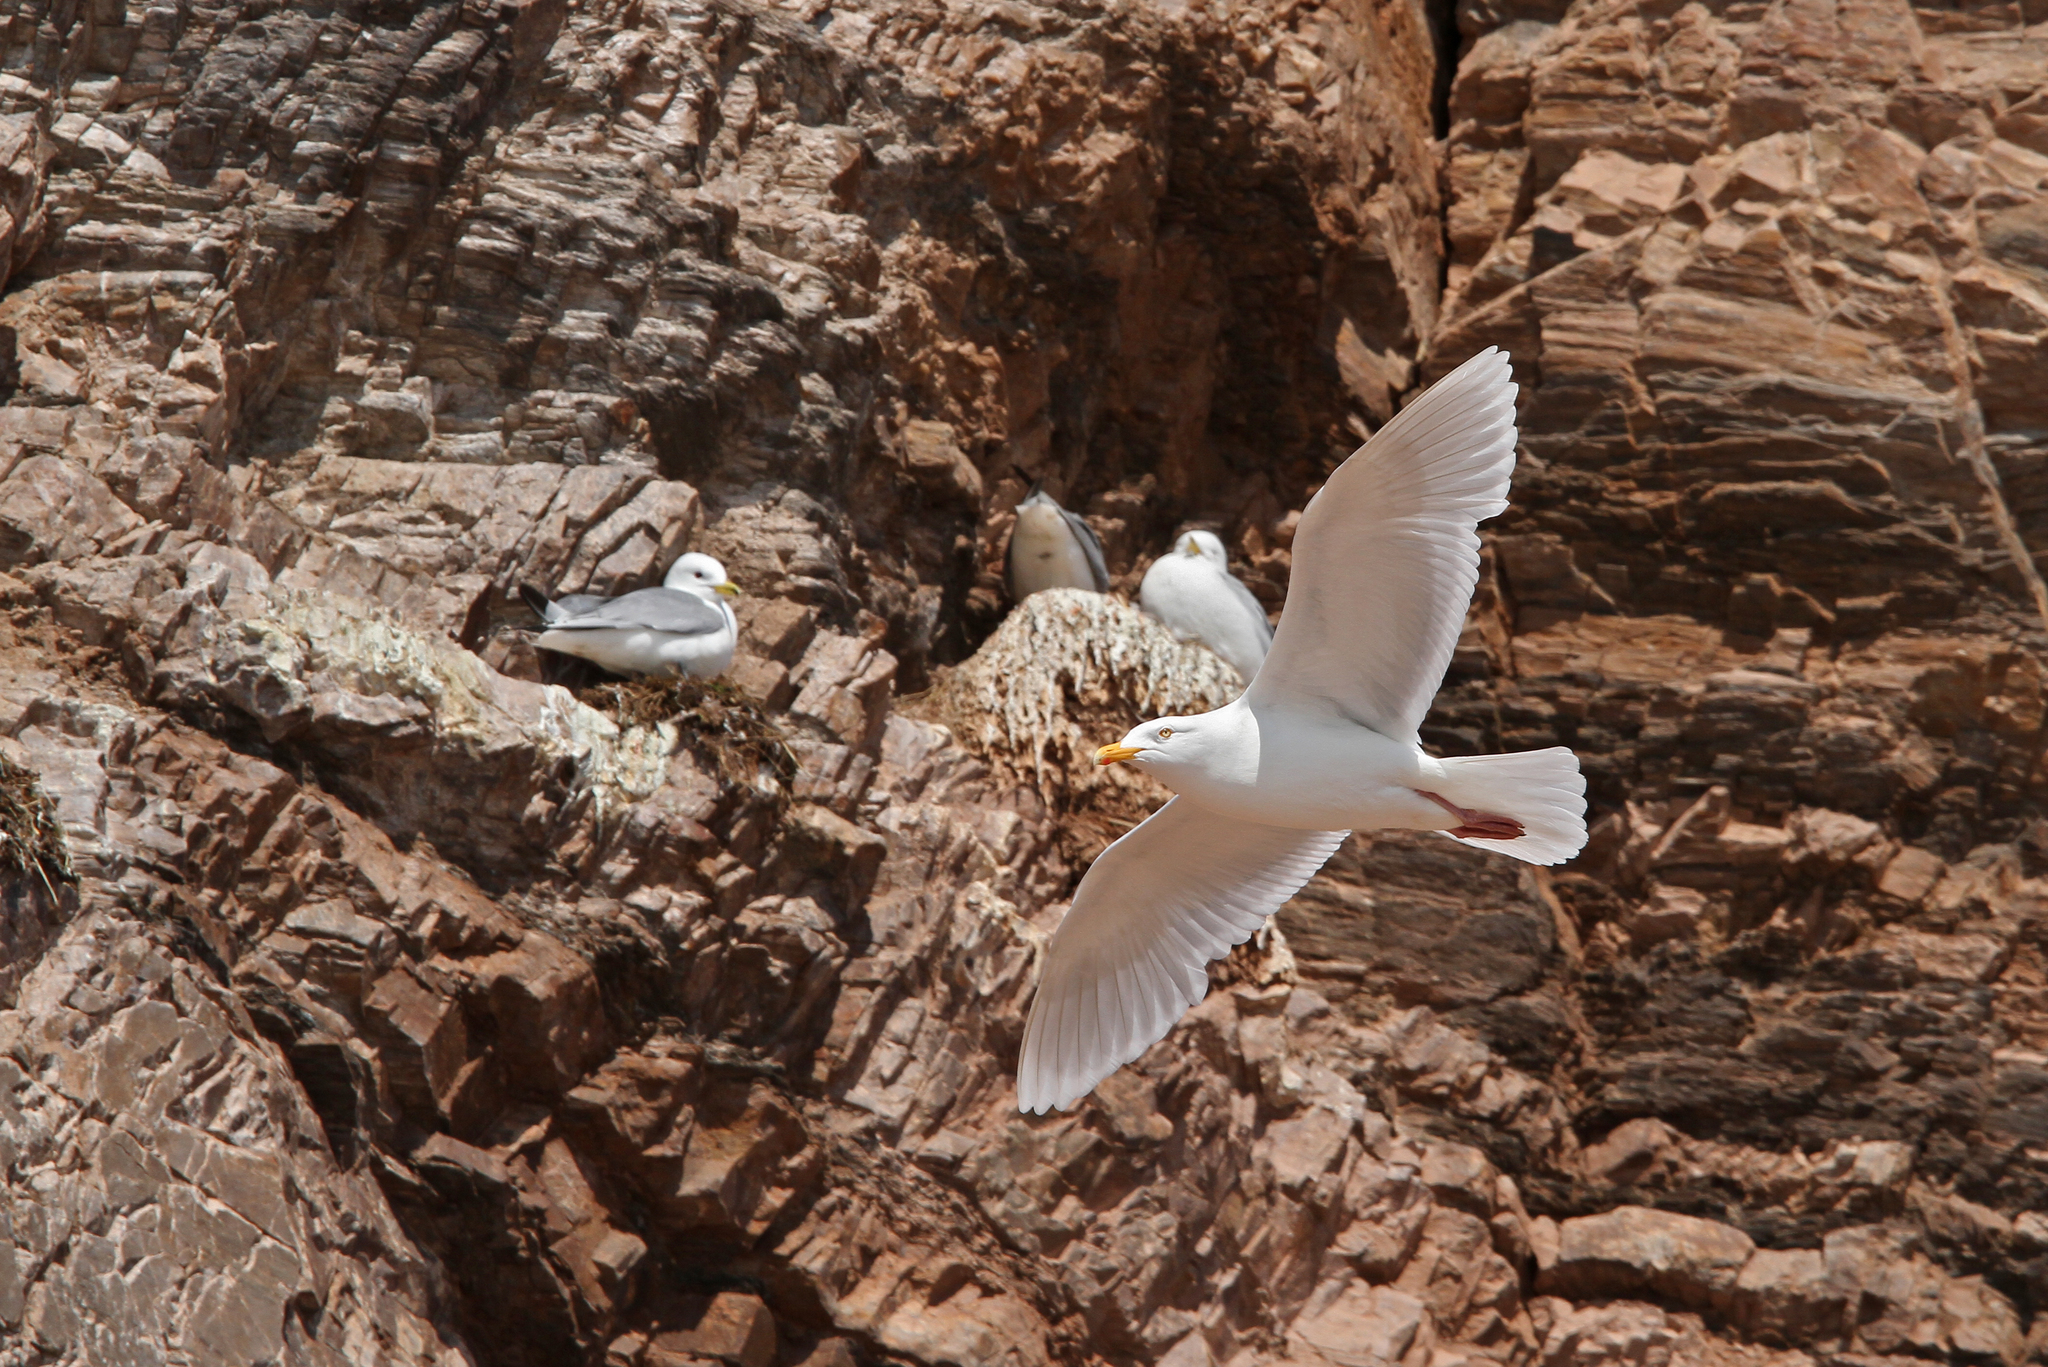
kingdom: Animalia
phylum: Chordata
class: Aves
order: Charadriiformes
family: Laridae
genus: Larus
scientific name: Larus hyperboreus
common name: Glaucous gull
